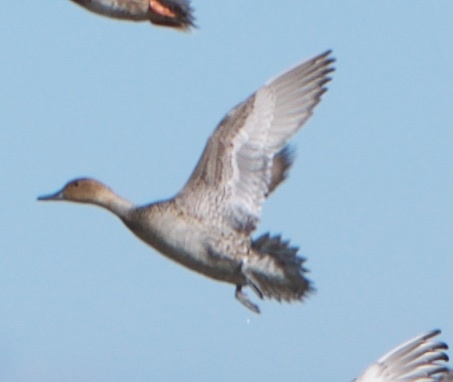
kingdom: Animalia
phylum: Chordata
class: Aves
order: Anseriformes
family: Anatidae
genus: Anas
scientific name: Anas acuta
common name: Northern pintail
